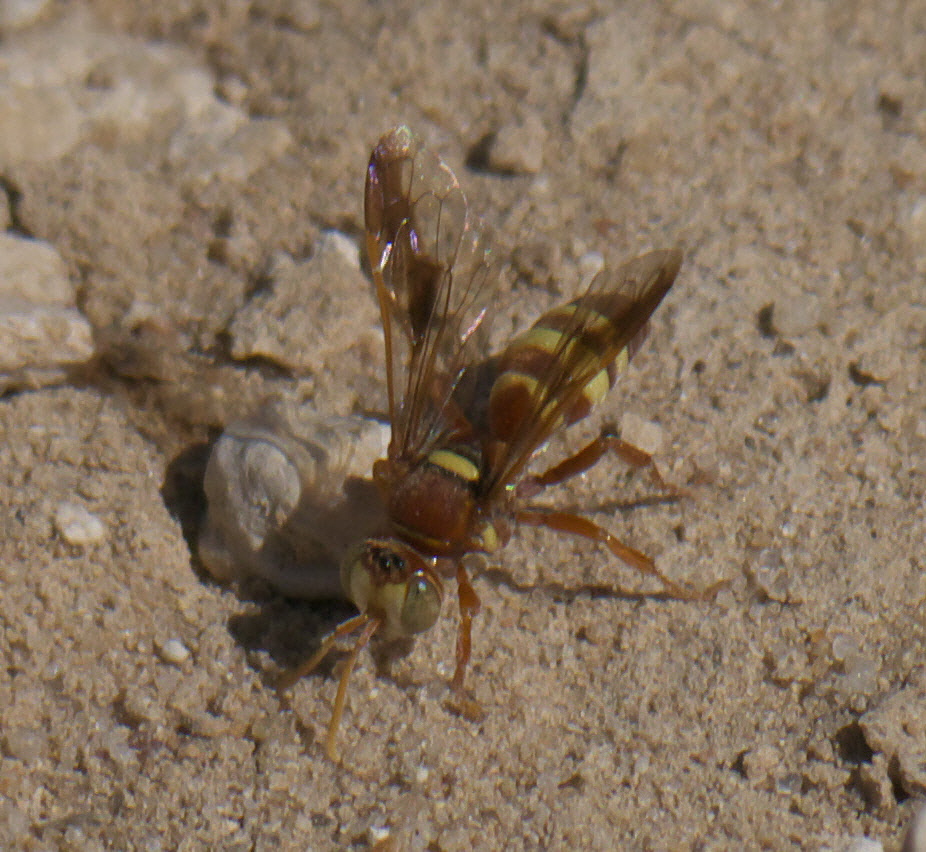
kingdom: Animalia
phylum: Arthropoda
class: Insecta
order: Hymenoptera
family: Crabronidae
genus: Hoplisoides
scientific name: Hoplisoides tricolor
